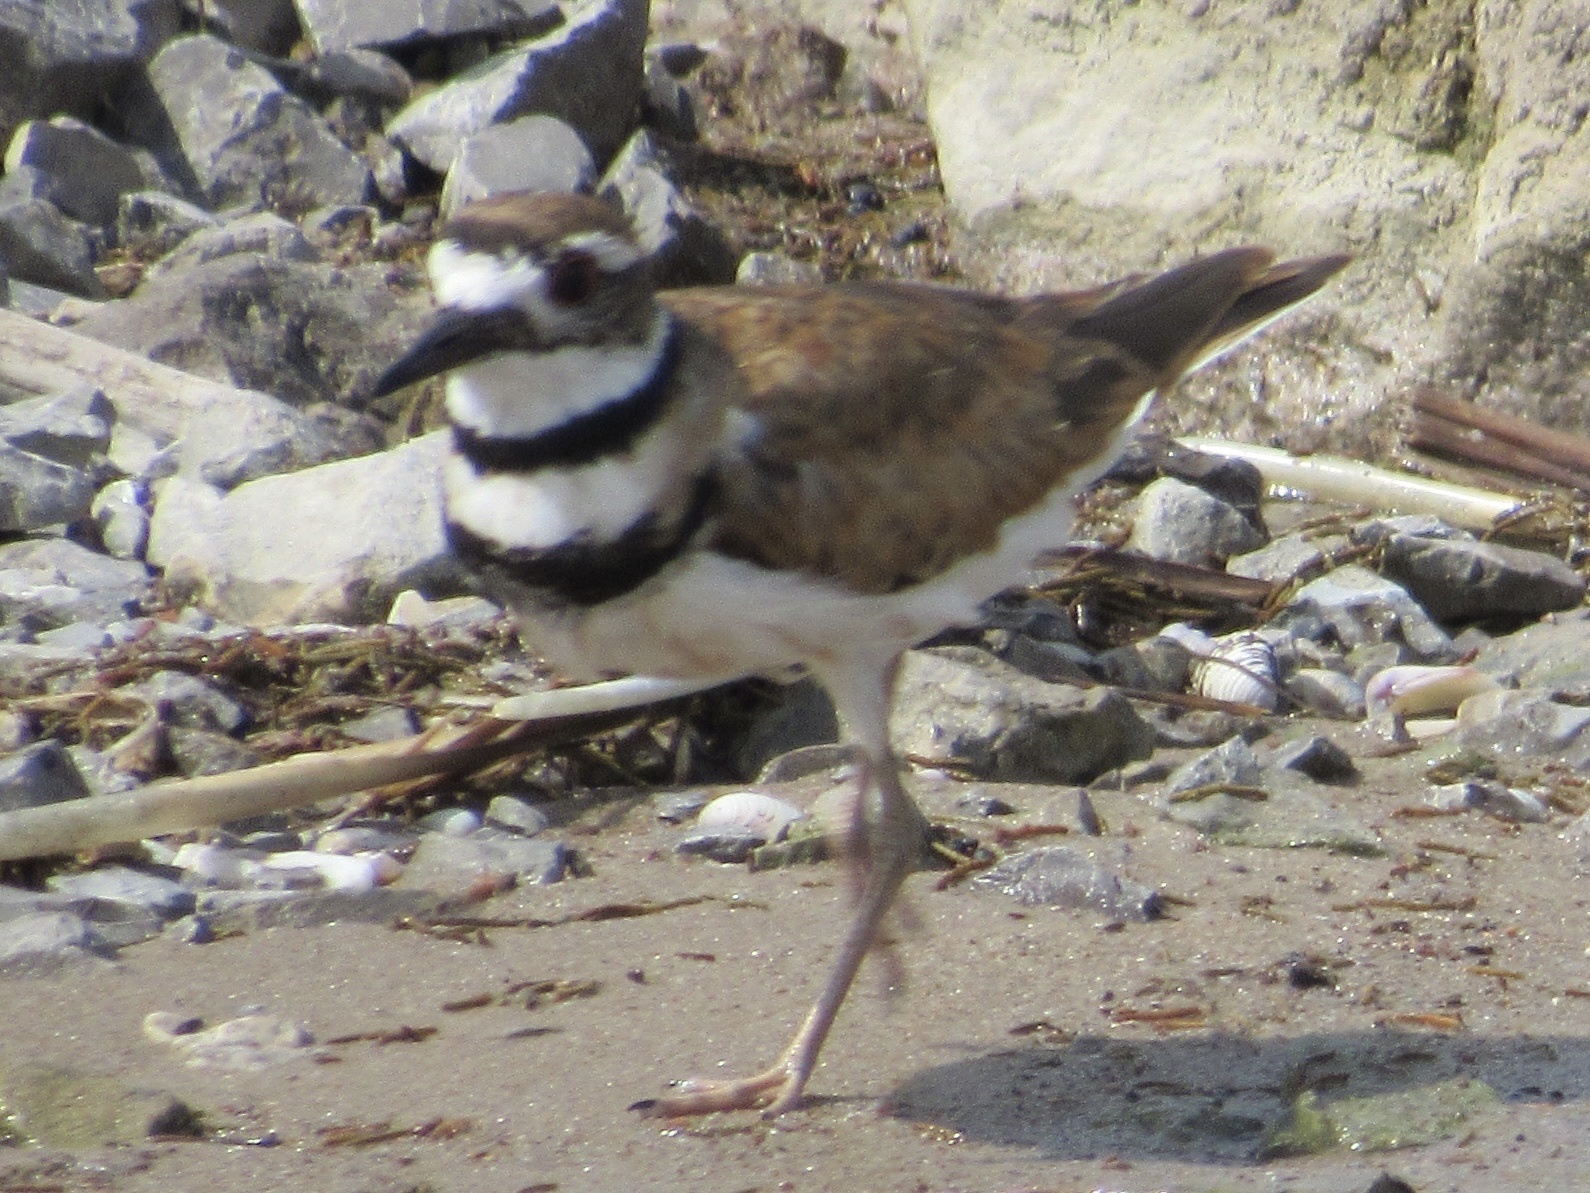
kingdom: Animalia
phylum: Chordata
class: Aves
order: Charadriiformes
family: Charadriidae
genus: Charadrius
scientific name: Charadrius vociferus
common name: Killdeer
